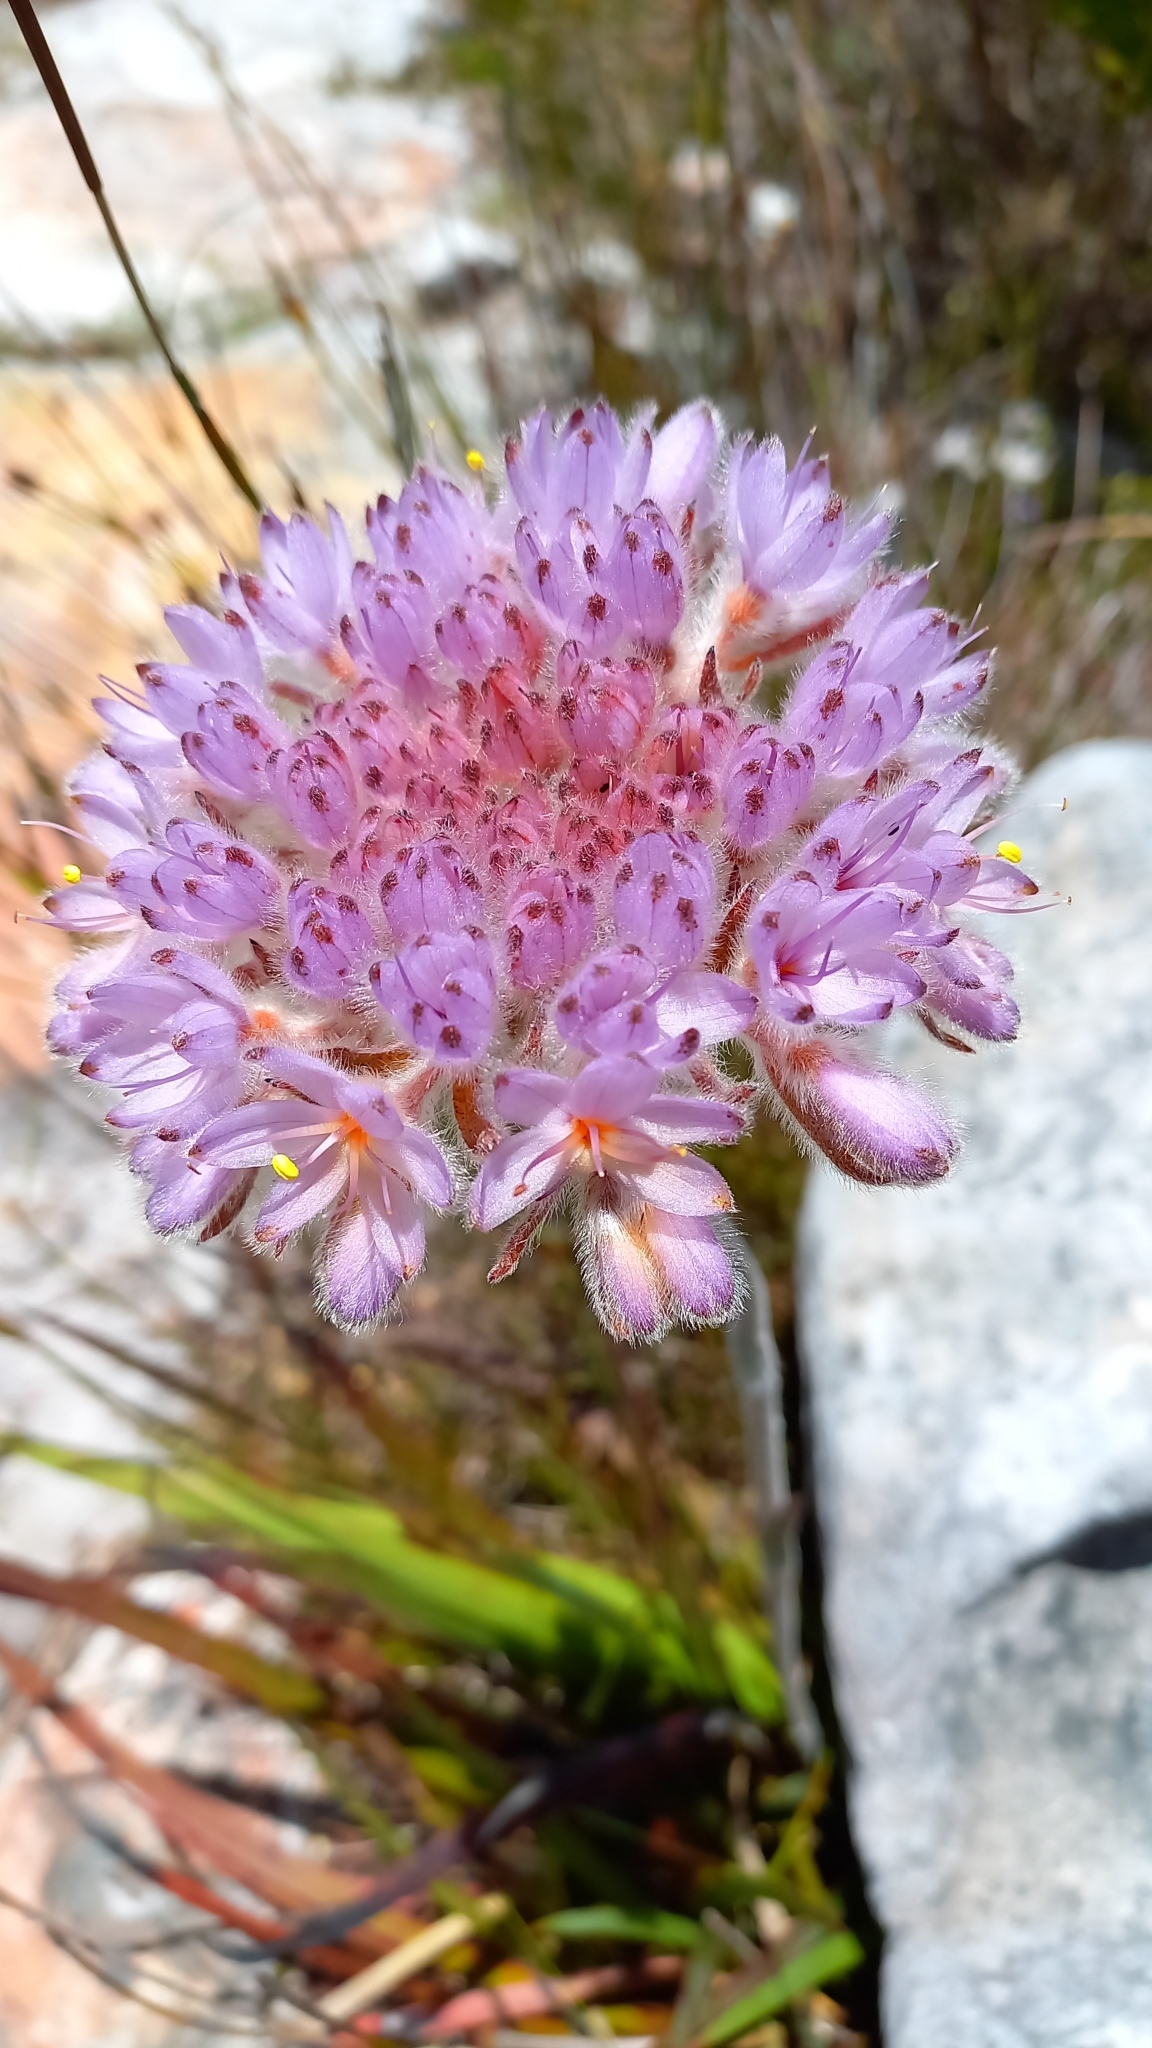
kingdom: Plantae
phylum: Tracheophyta
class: Liliopsida
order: Commelinales
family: Haemodoraceae
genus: Dilatris
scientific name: Dilatris corymbosa
